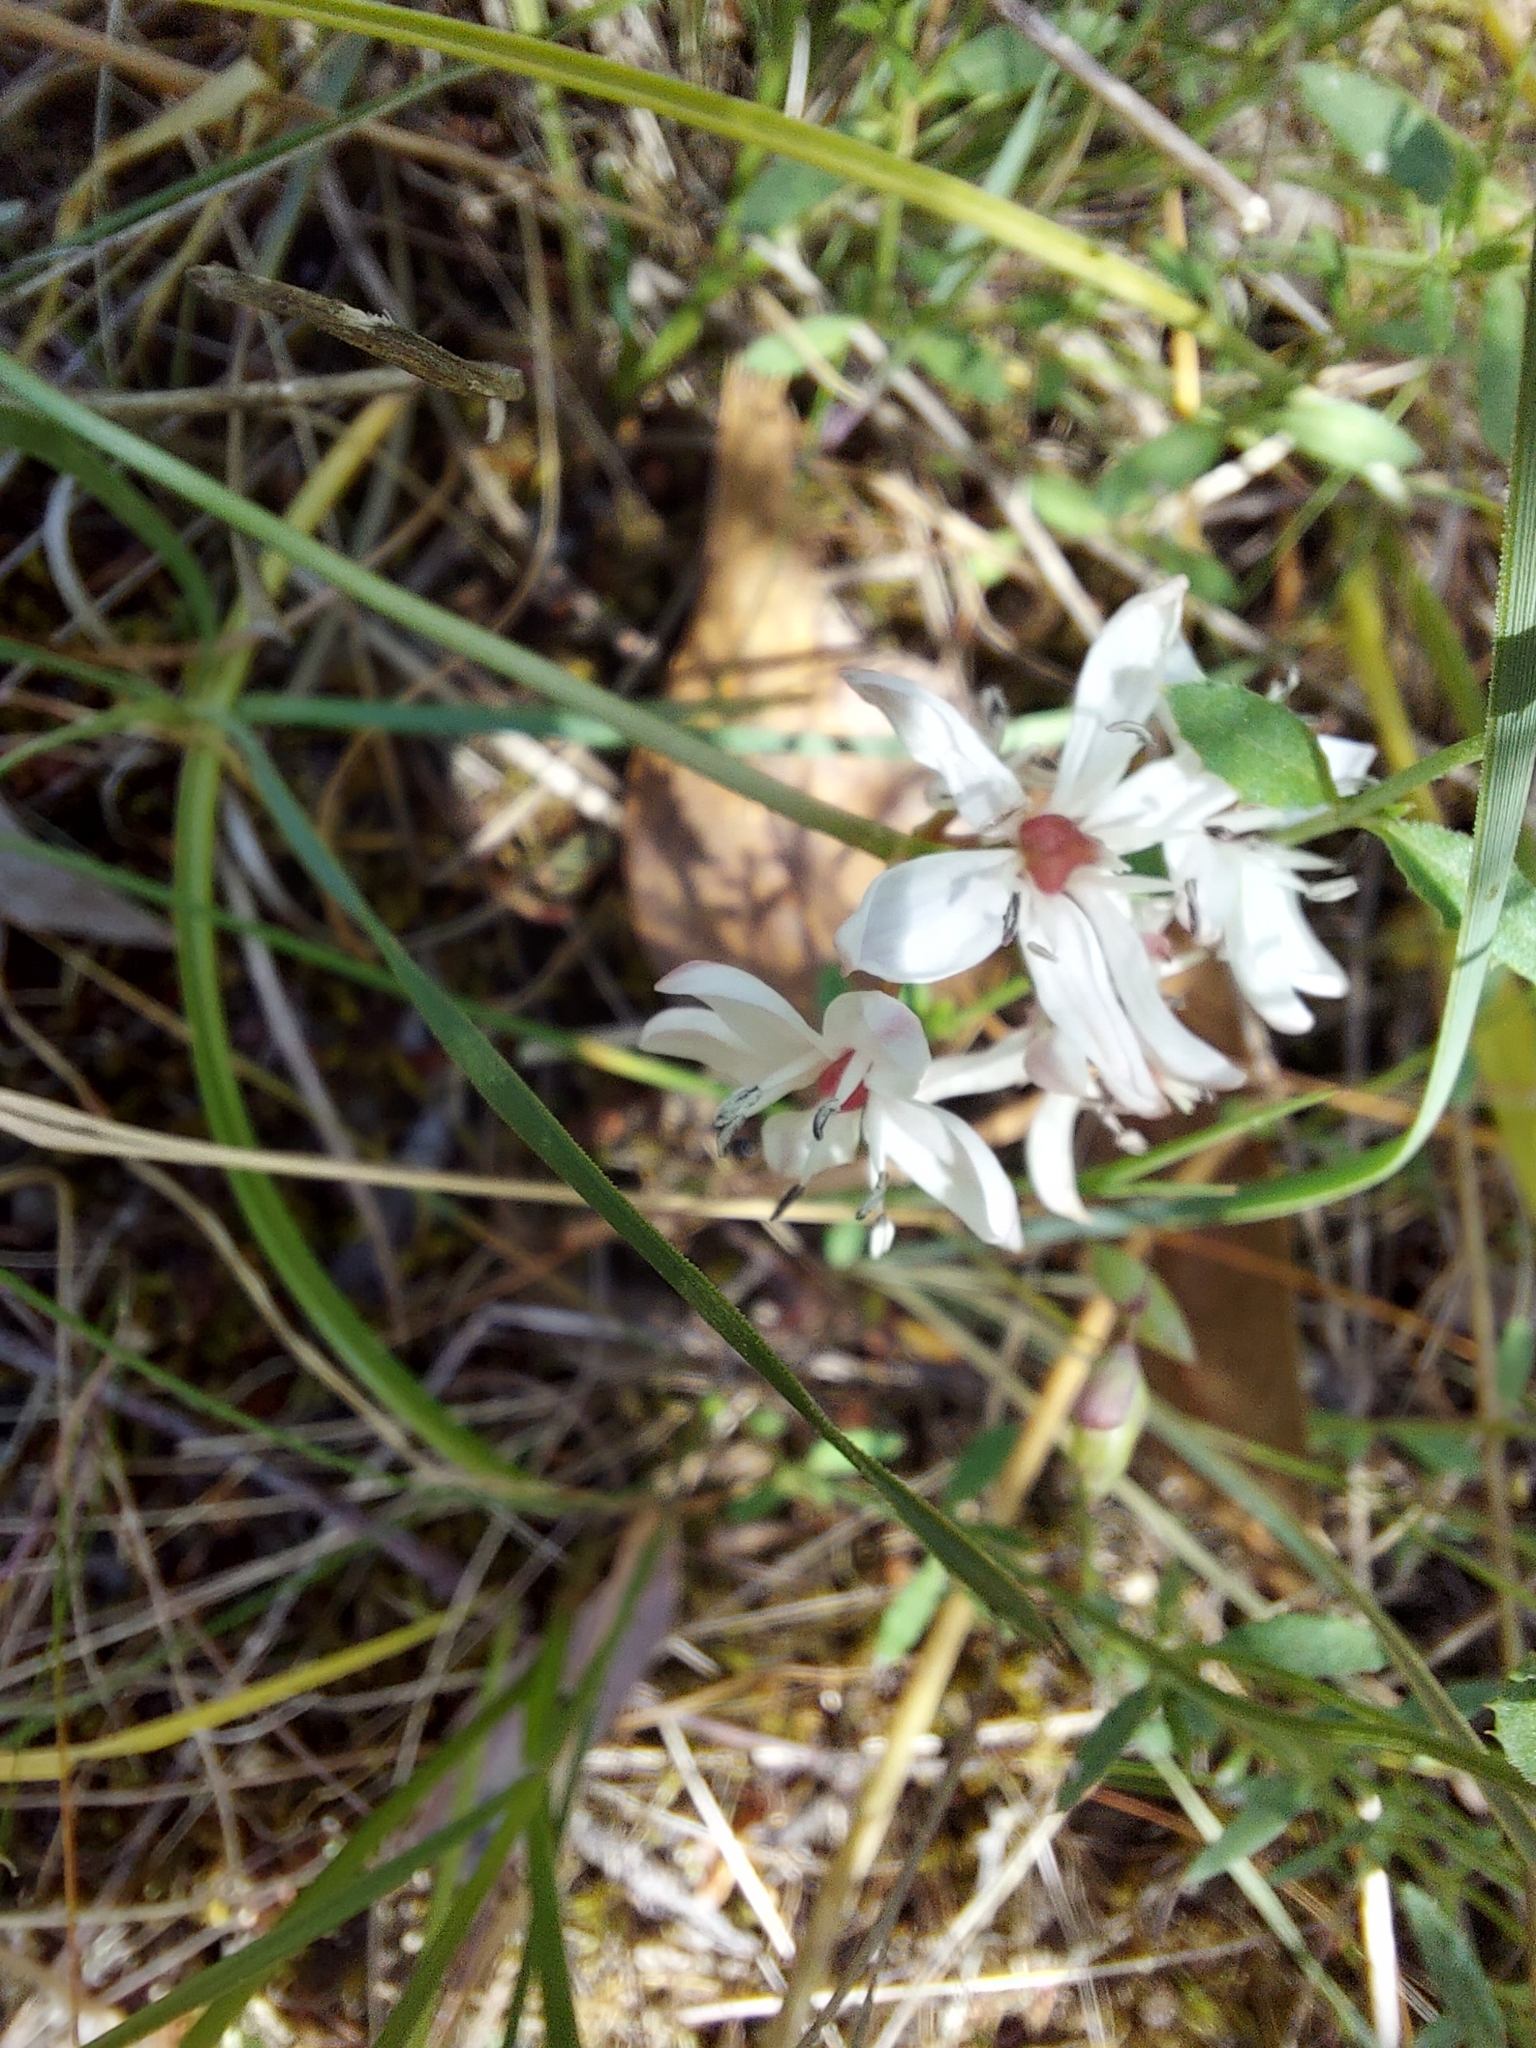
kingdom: Plantae
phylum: Tracheophyta
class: Liliopsida
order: Liliales
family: Colchicaceae
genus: Burchardia
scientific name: Burchardia umbellata
